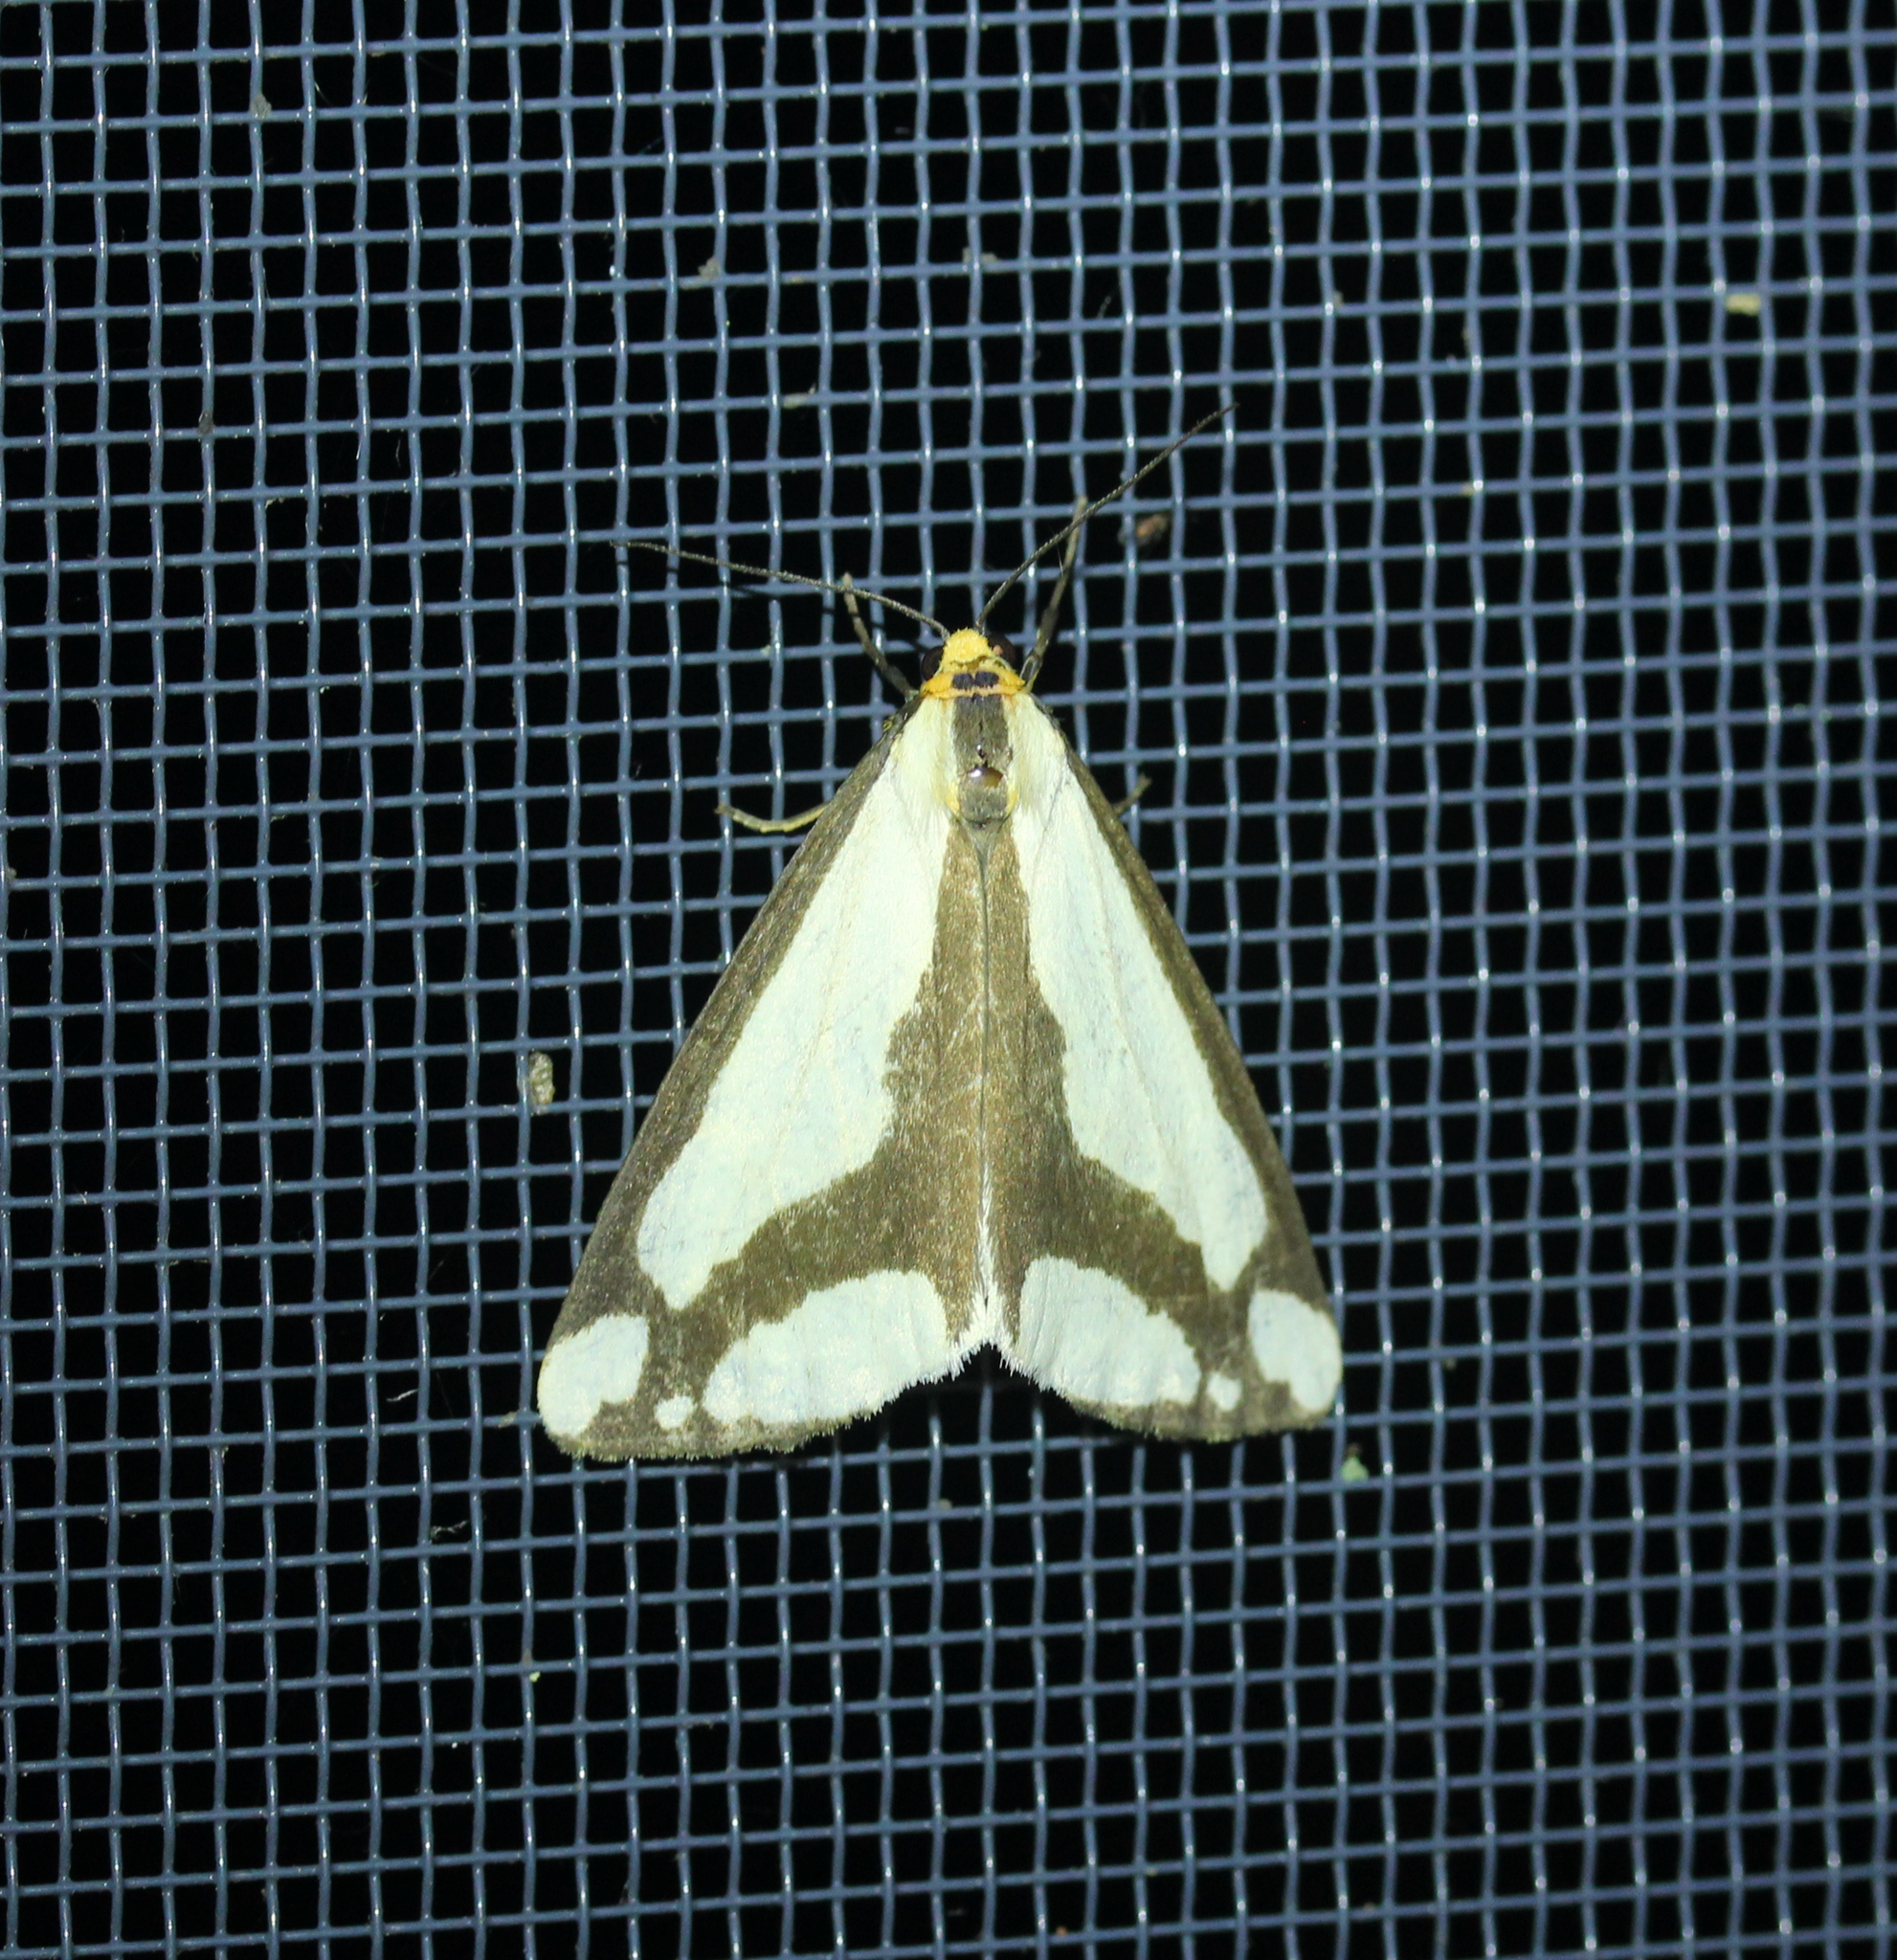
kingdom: Animalia
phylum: Arthropoda
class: Insecta
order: Lepidoptera
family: Erebidae
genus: Haploa
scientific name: Haploa lecontei
